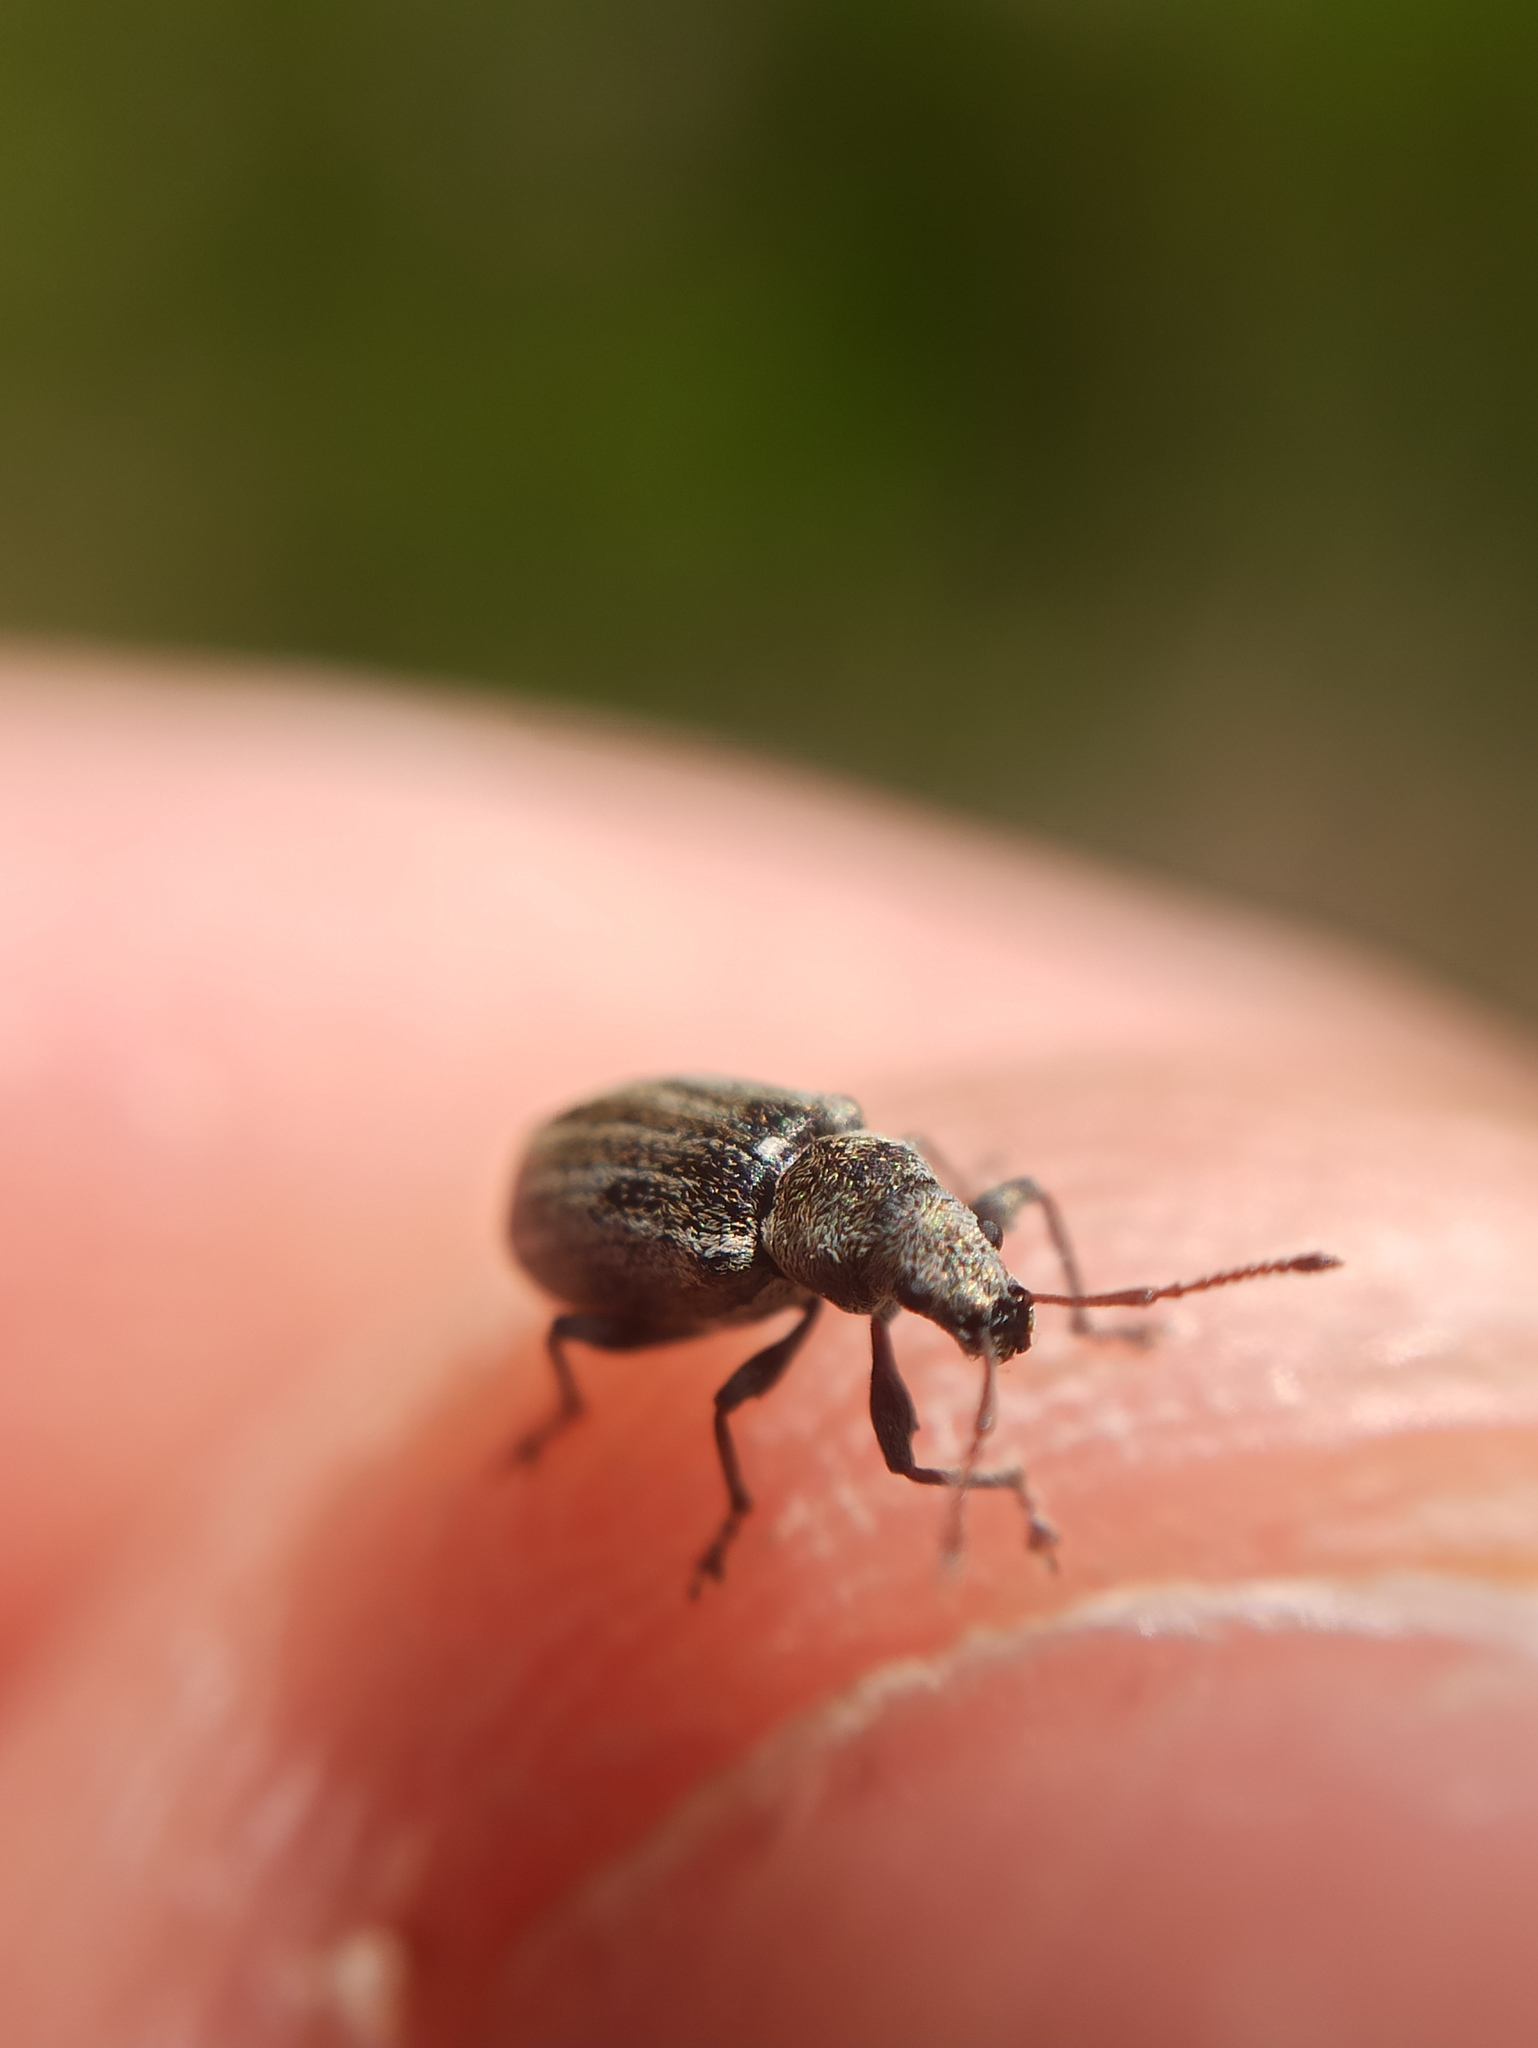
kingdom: Animalia
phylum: Arthropoda
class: Insecta
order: Coleoptera
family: Curculionidae
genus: Phyllobius
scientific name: Phyllobius pyri
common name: Common leaf weevil
